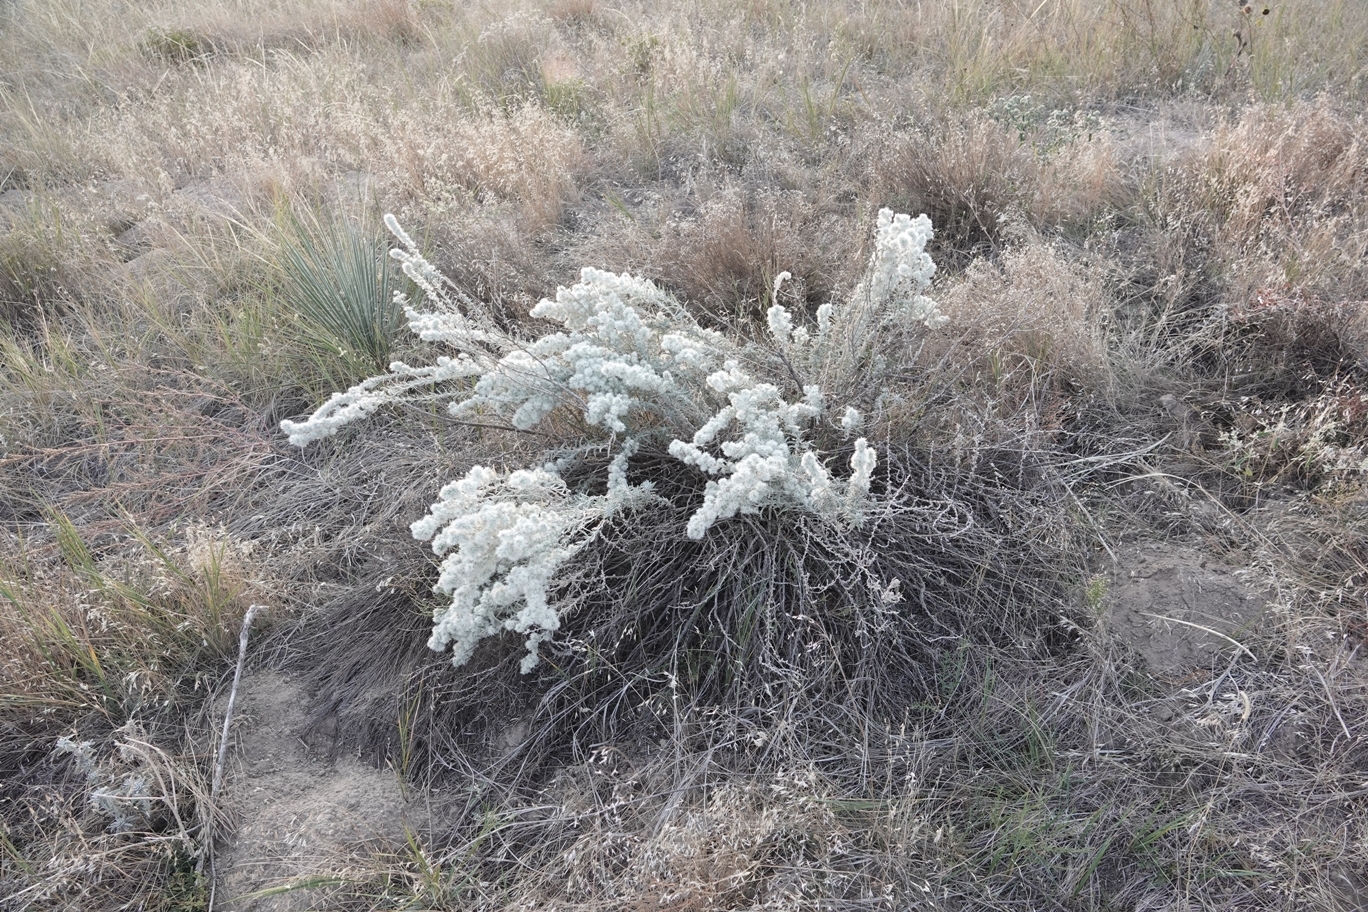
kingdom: Plantae
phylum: Tracheophyta
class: Magnoliopsida
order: Caryophyllales
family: Amaranthaceae
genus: Krascheninnikovia
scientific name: Krascheninnikovia lanata
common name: Winterfat
